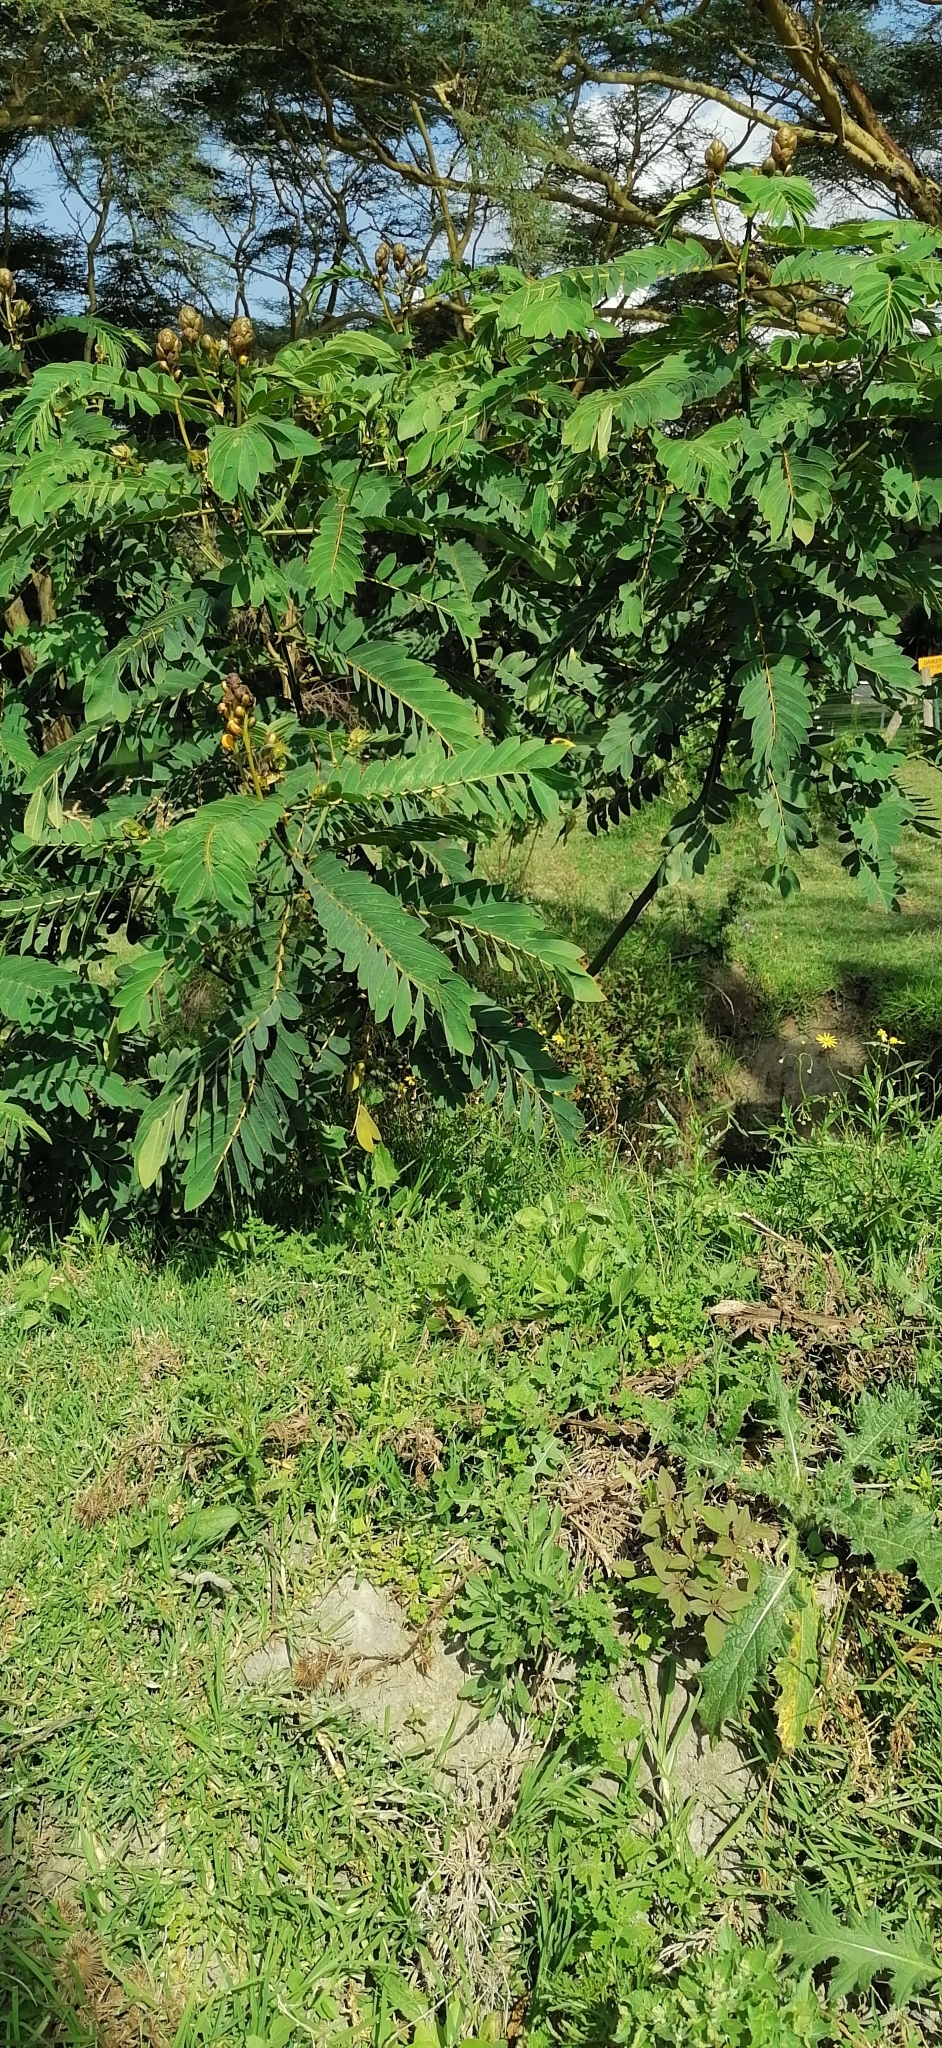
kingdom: Plantae
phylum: Tracheophyta
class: Magnoliopsida
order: Fabales
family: Fabaceae
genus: Senna
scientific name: Senna didymobotrya
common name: African senna
